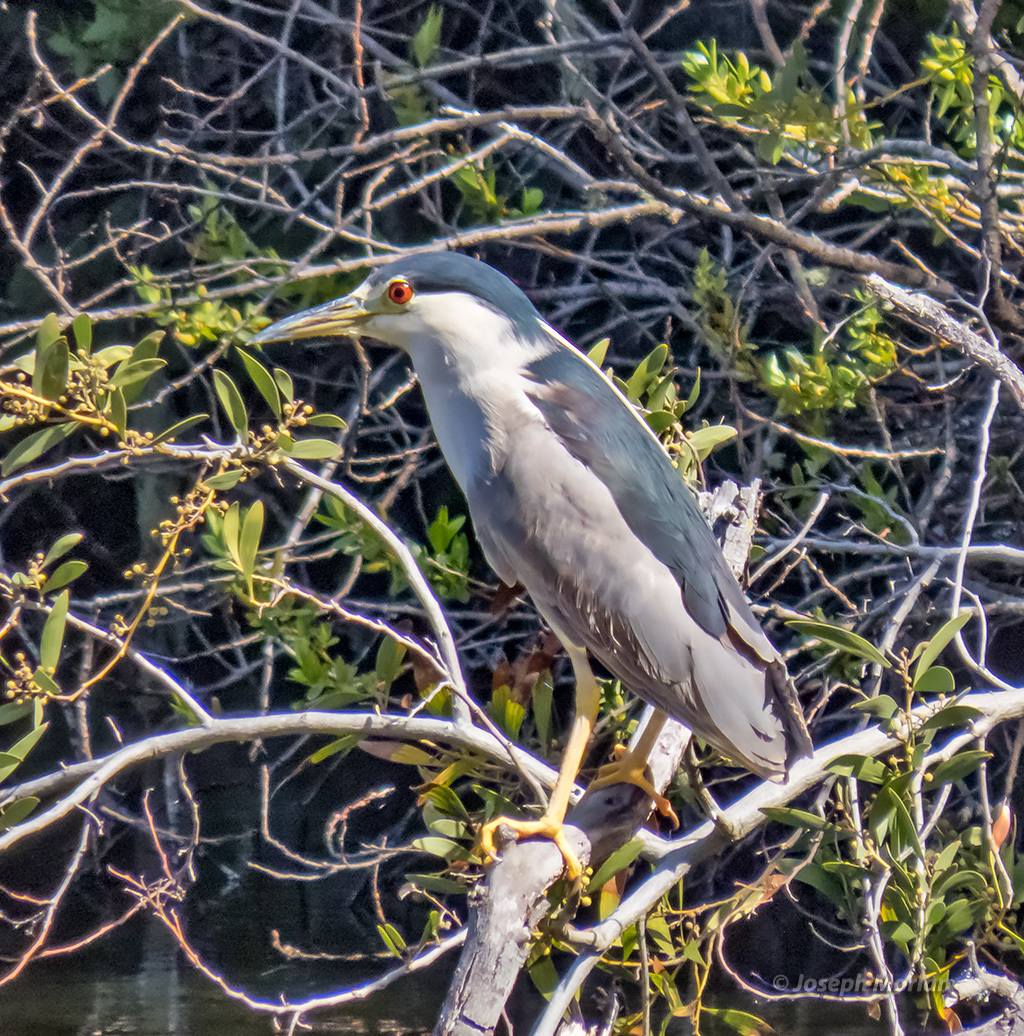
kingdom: Animalia
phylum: Chordata
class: Aves
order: Pelecaniformes
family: Ardeidae
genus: Nycticorax
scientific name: Nycticorax nycticorax
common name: Black-crowned night heron
